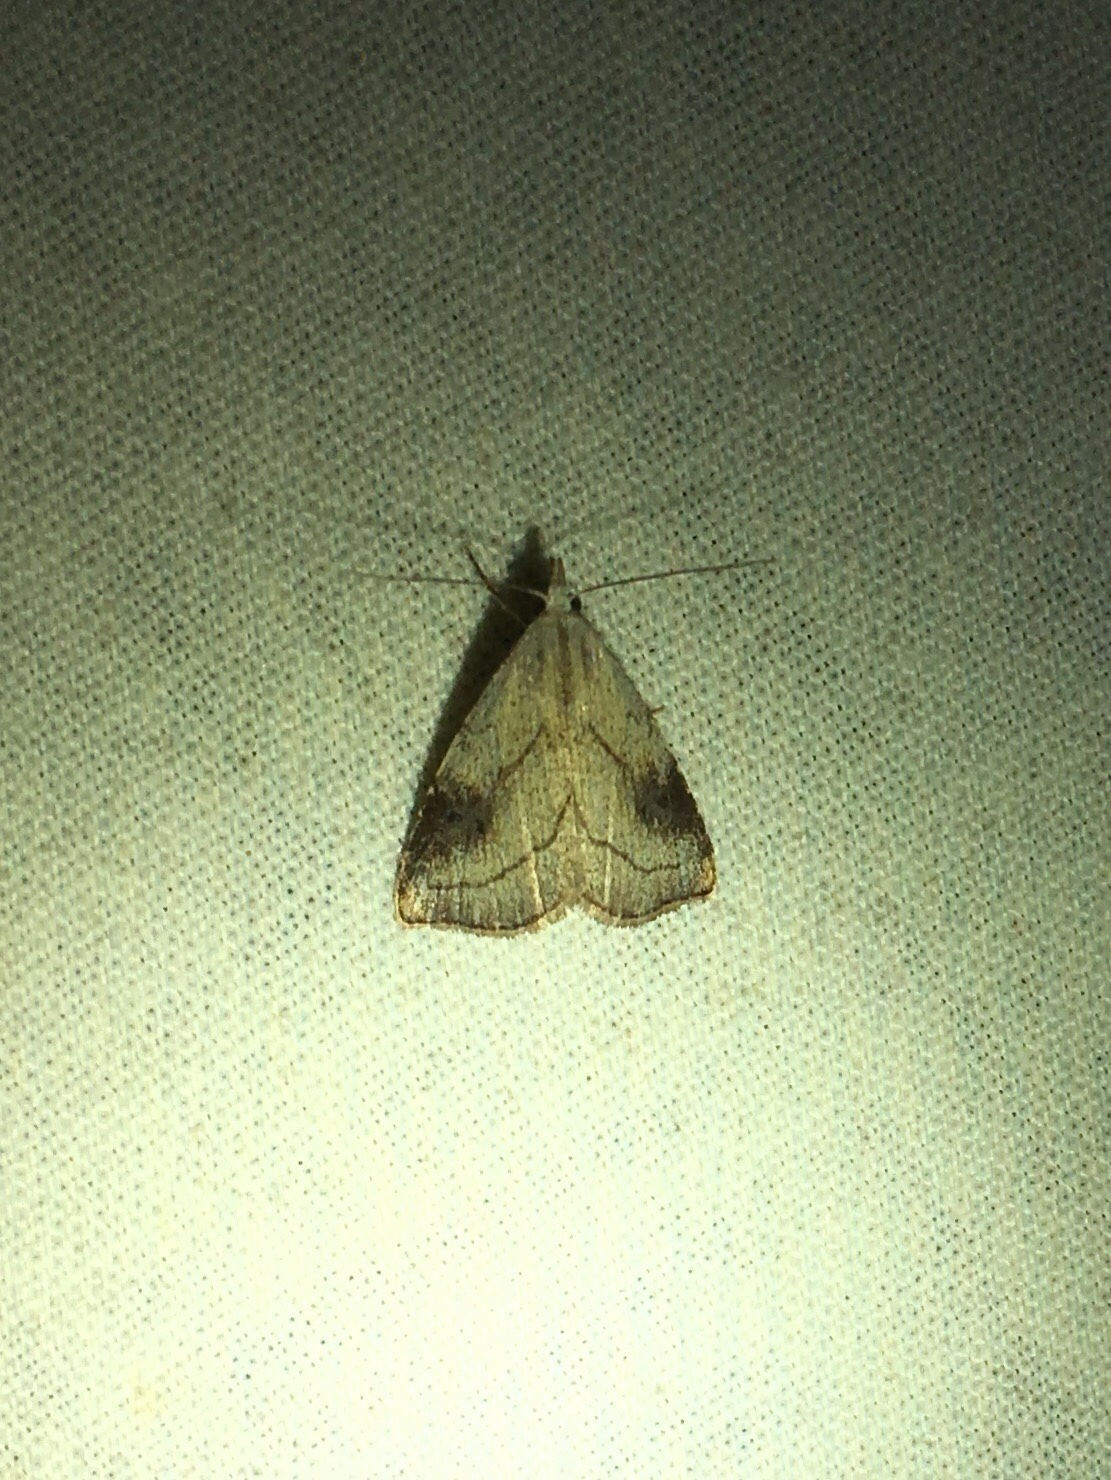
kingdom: Animalia
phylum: Arthropoda
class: Insecta
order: Lepidoptera
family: Erebidae
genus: Rivula
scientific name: Rivula propinqualis
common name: Spotted grass moth
